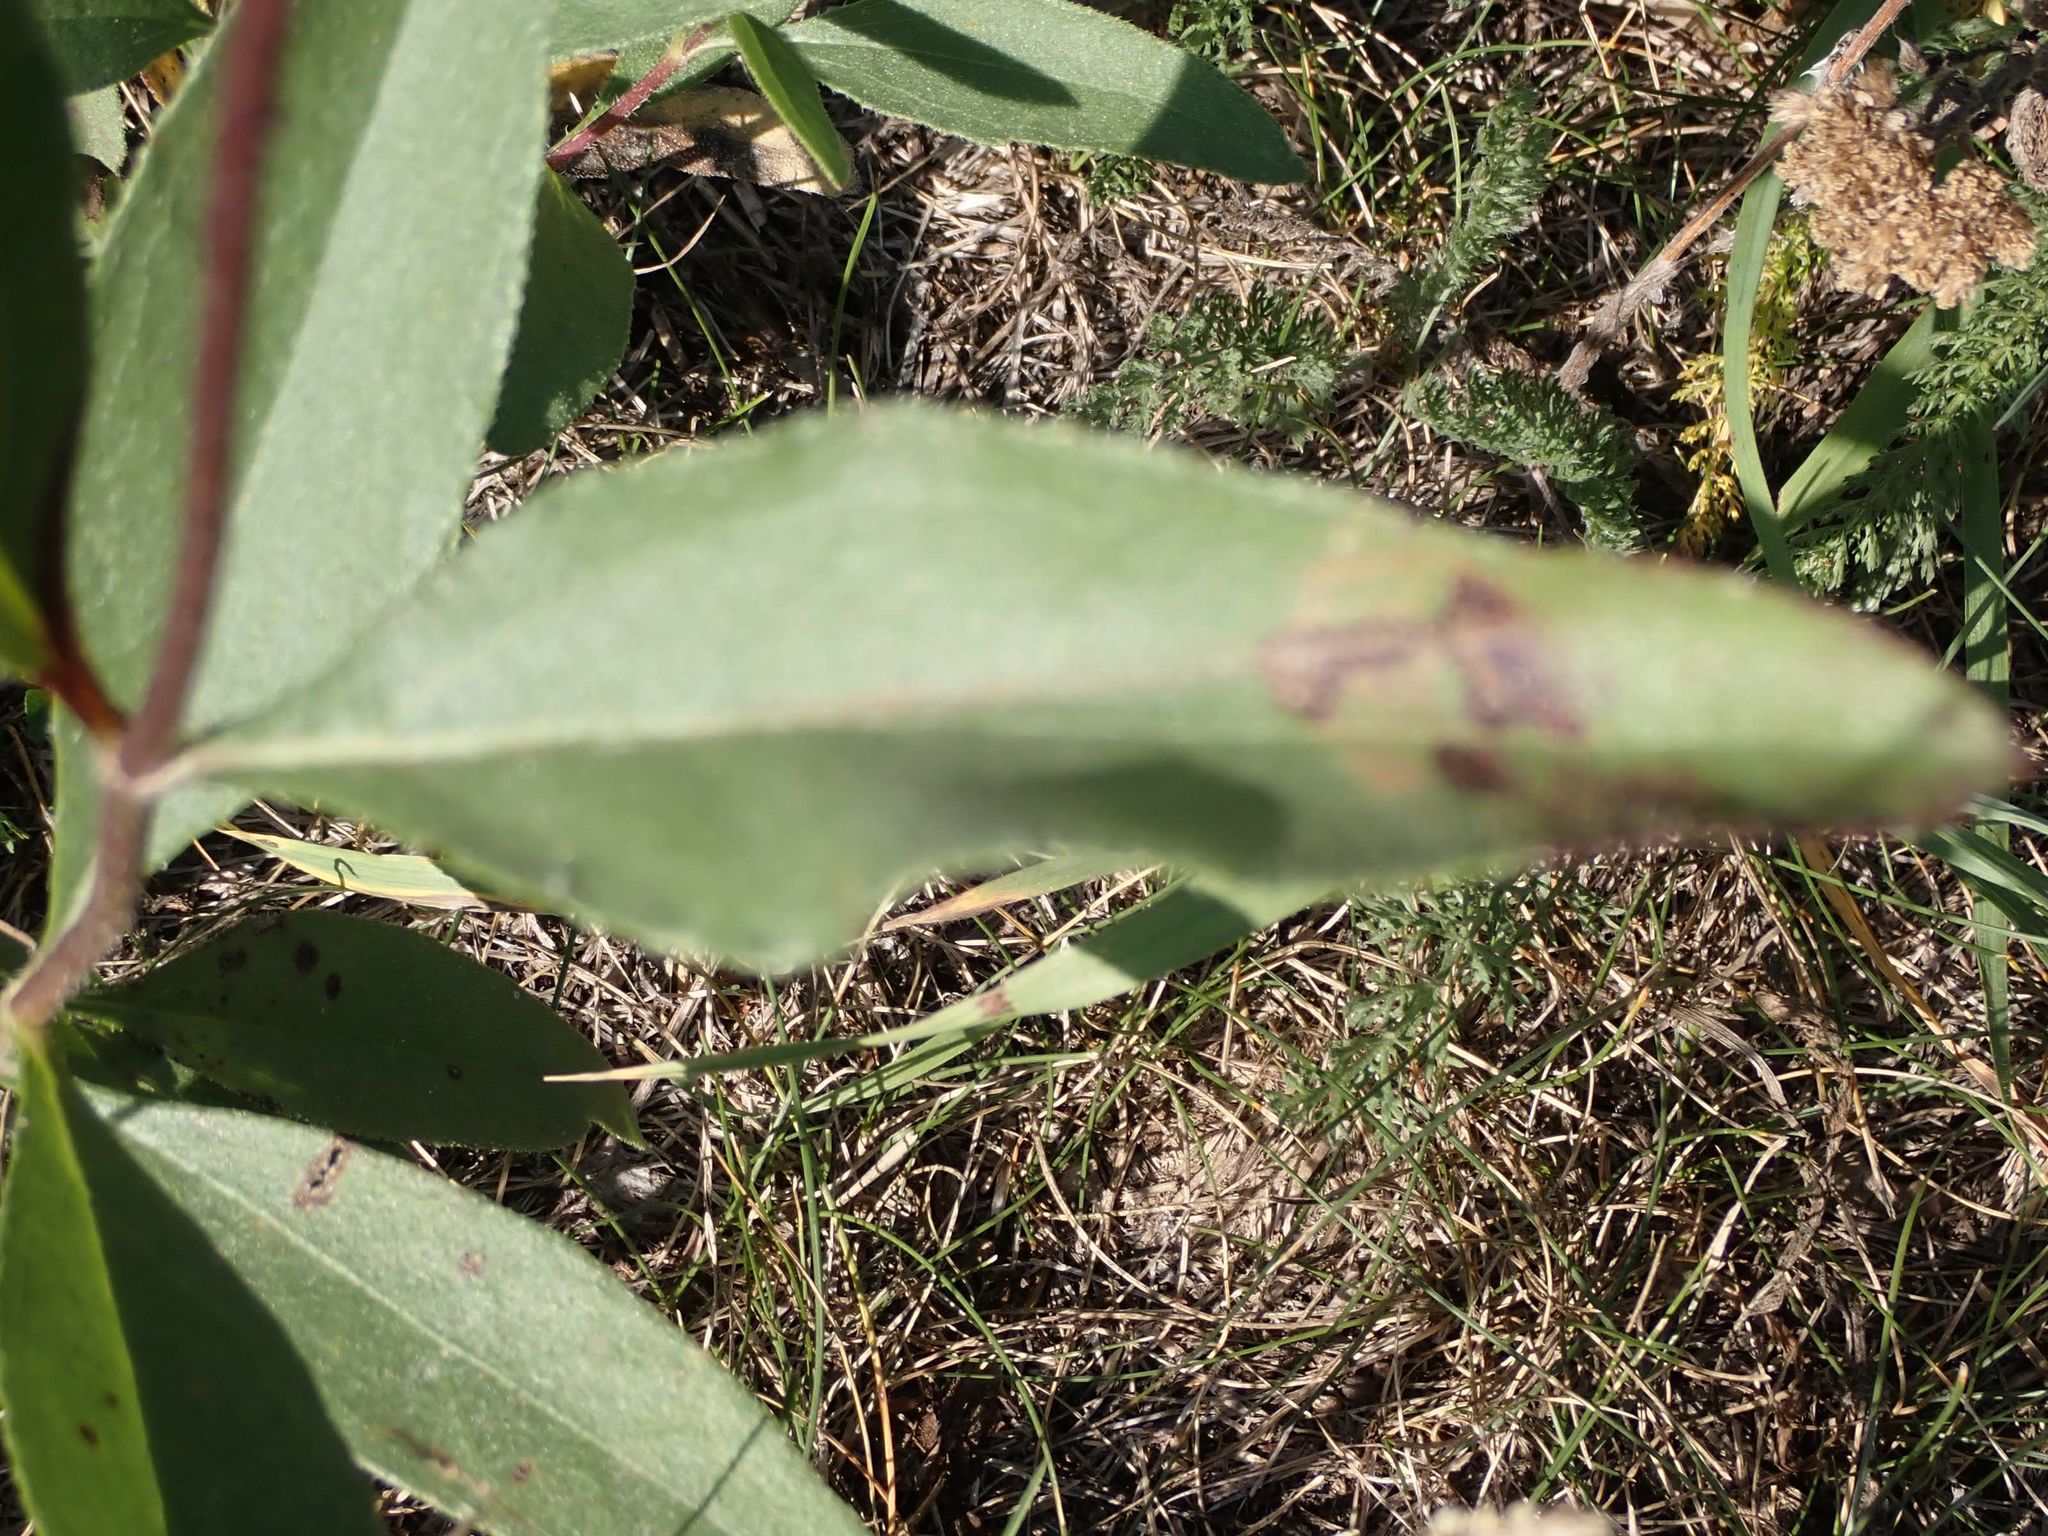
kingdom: Plantae
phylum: Tracheophyta
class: Magnoliopsida
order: Asterales
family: Asteraceae
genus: Helianthus
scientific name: Helianthus pauciflorus
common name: Stiff sunflower
